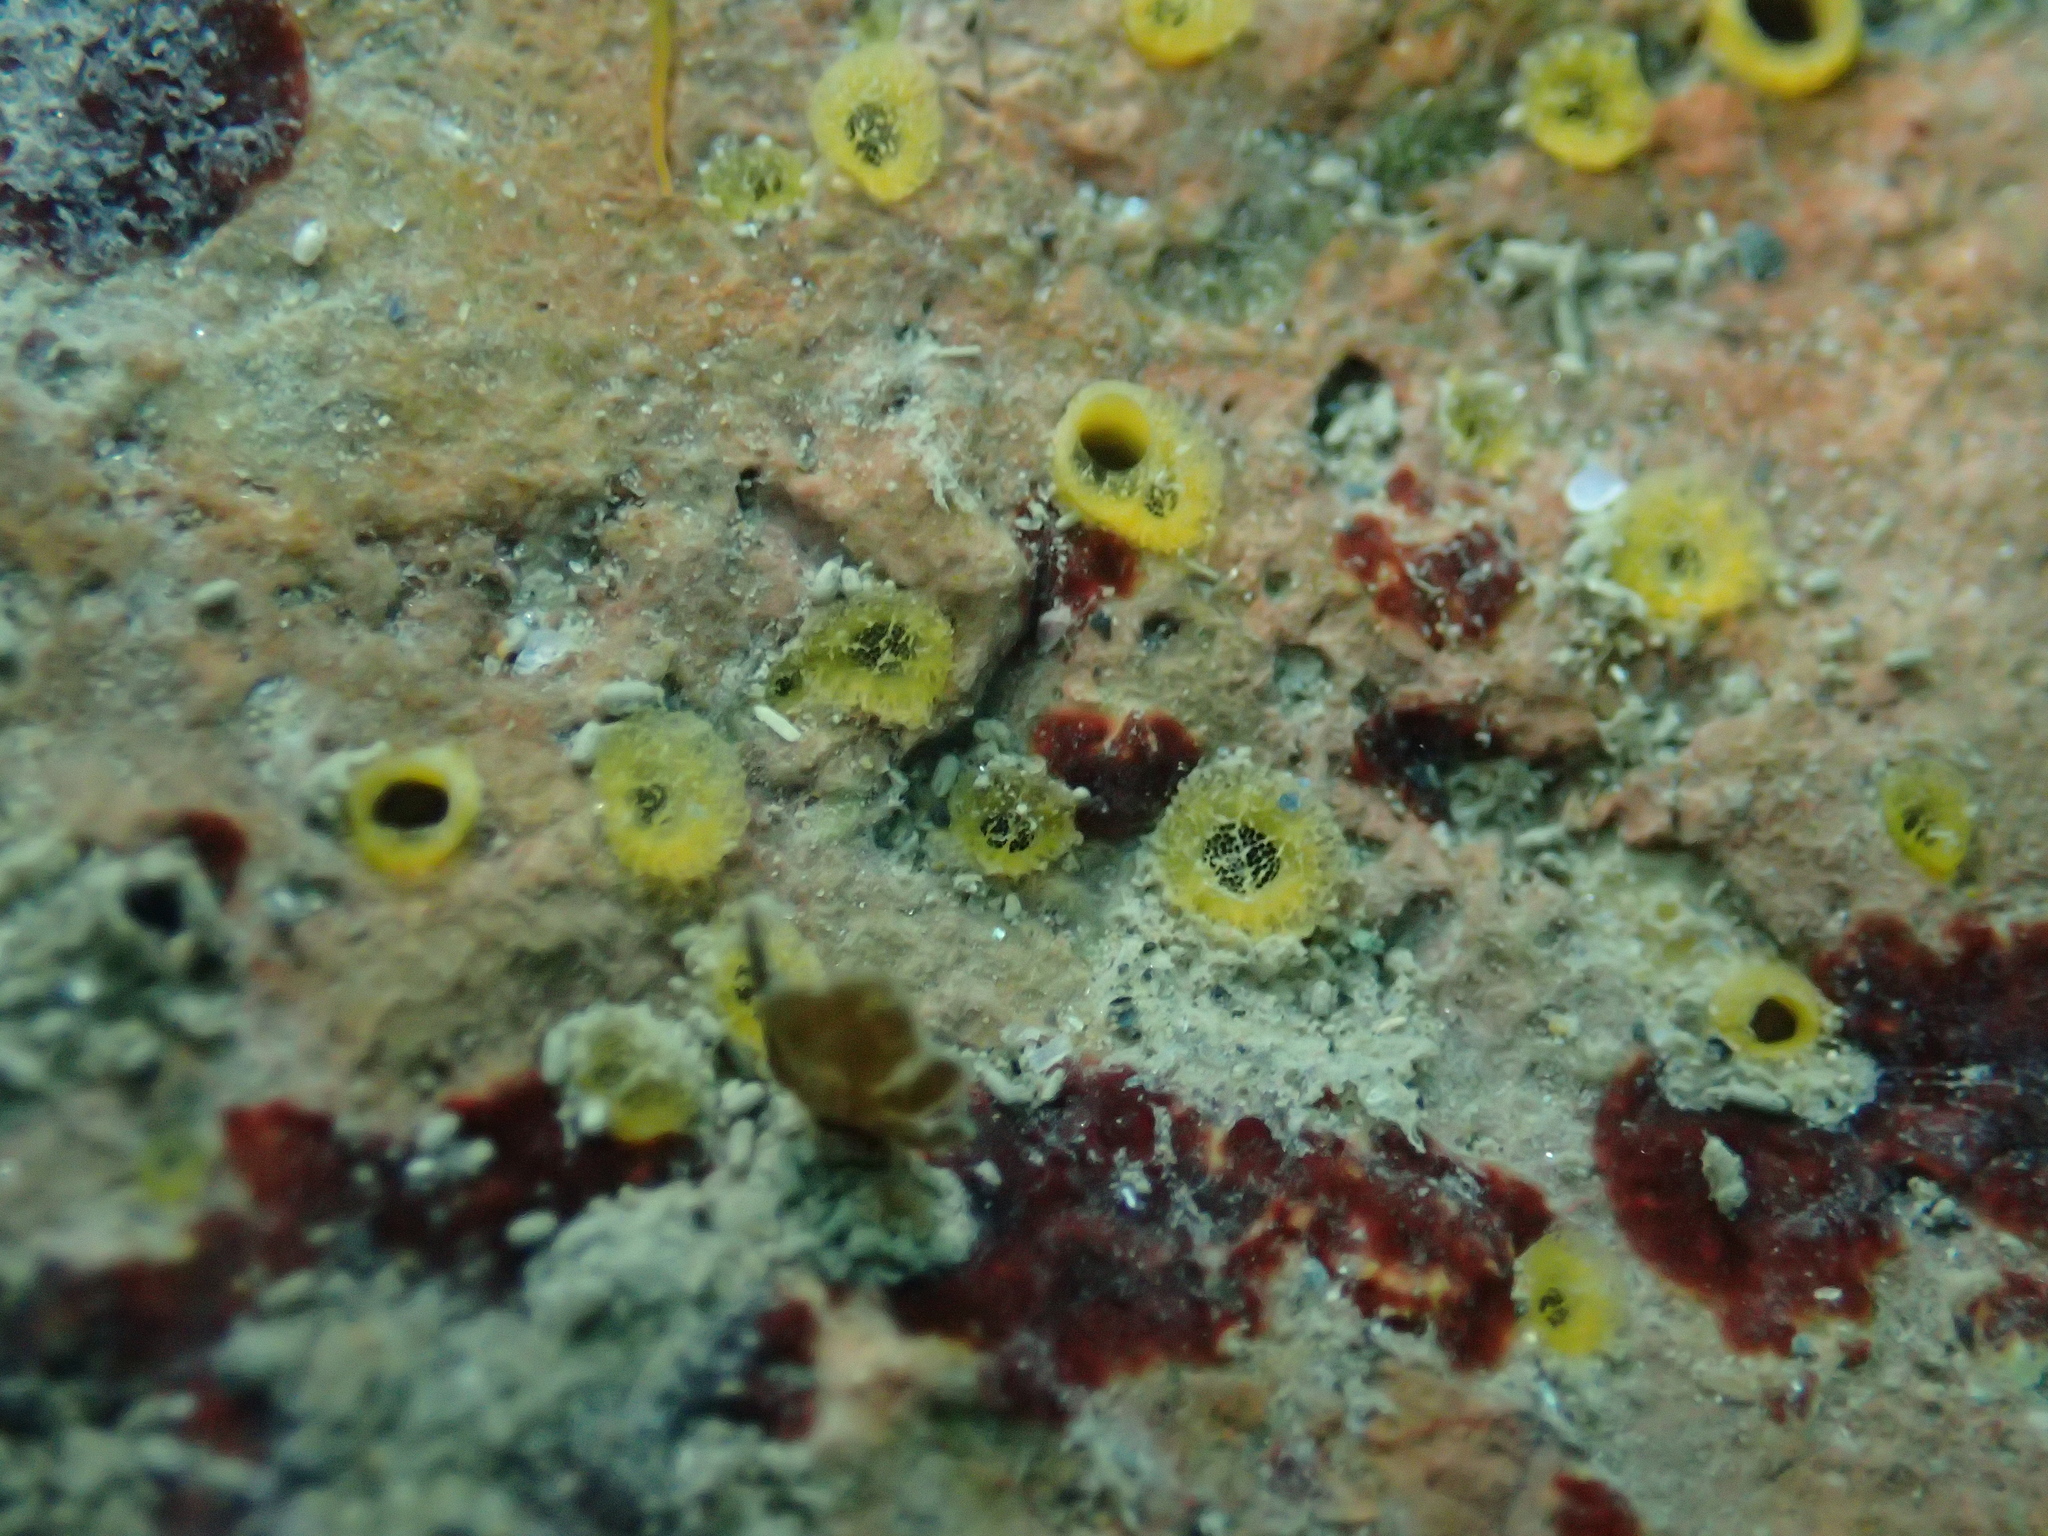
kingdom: Animalia
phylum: Porifera
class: Demospongiae
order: Clionaida
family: Clionaidae
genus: Cliona
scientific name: Cliona celata
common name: Boring sponge
